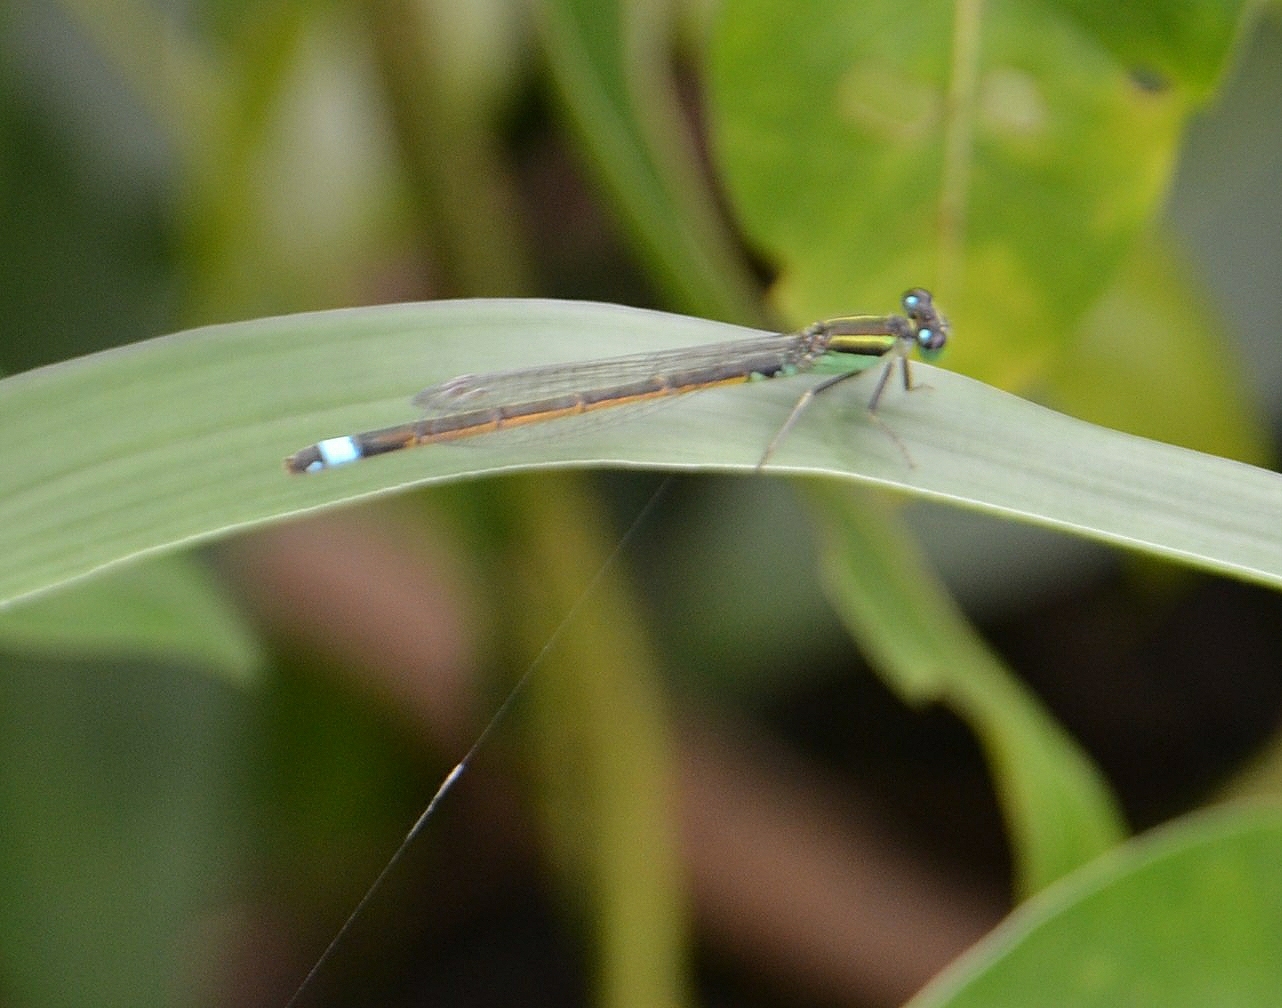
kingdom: Animalia
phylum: Arthropoda
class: Insecta
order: Odonata
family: Coenagrionidae
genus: Ischnura
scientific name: Ischnura senegalensis
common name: Tropical bluetail
